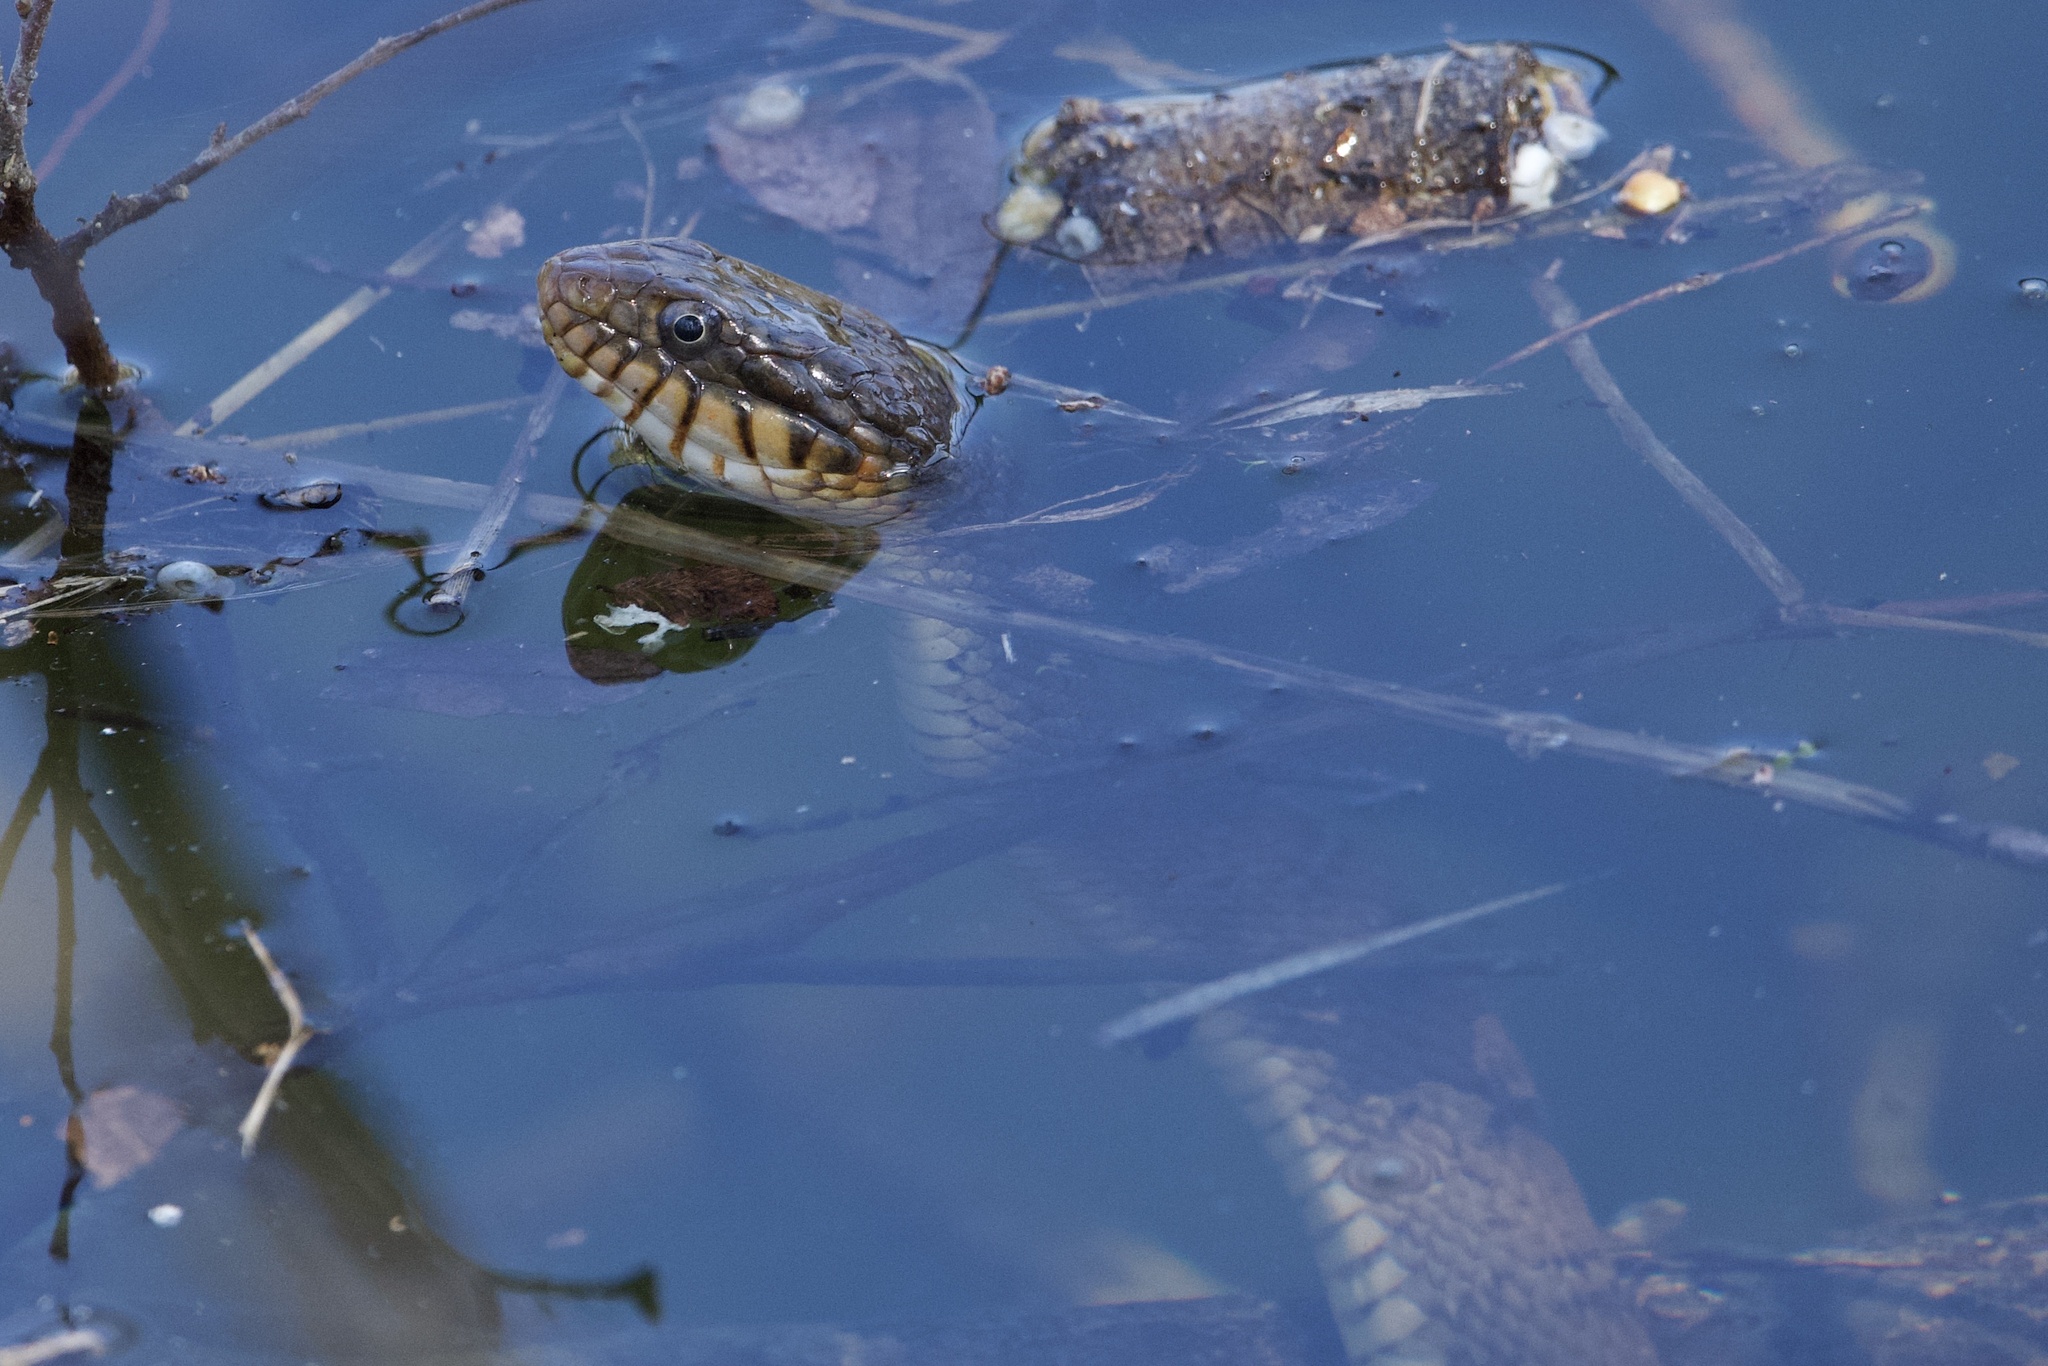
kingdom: Animalia
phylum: Chordata
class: Squamata
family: Colubridae
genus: Nerodia
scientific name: Nerodia erythrogaster
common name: Plainbelly water snake
